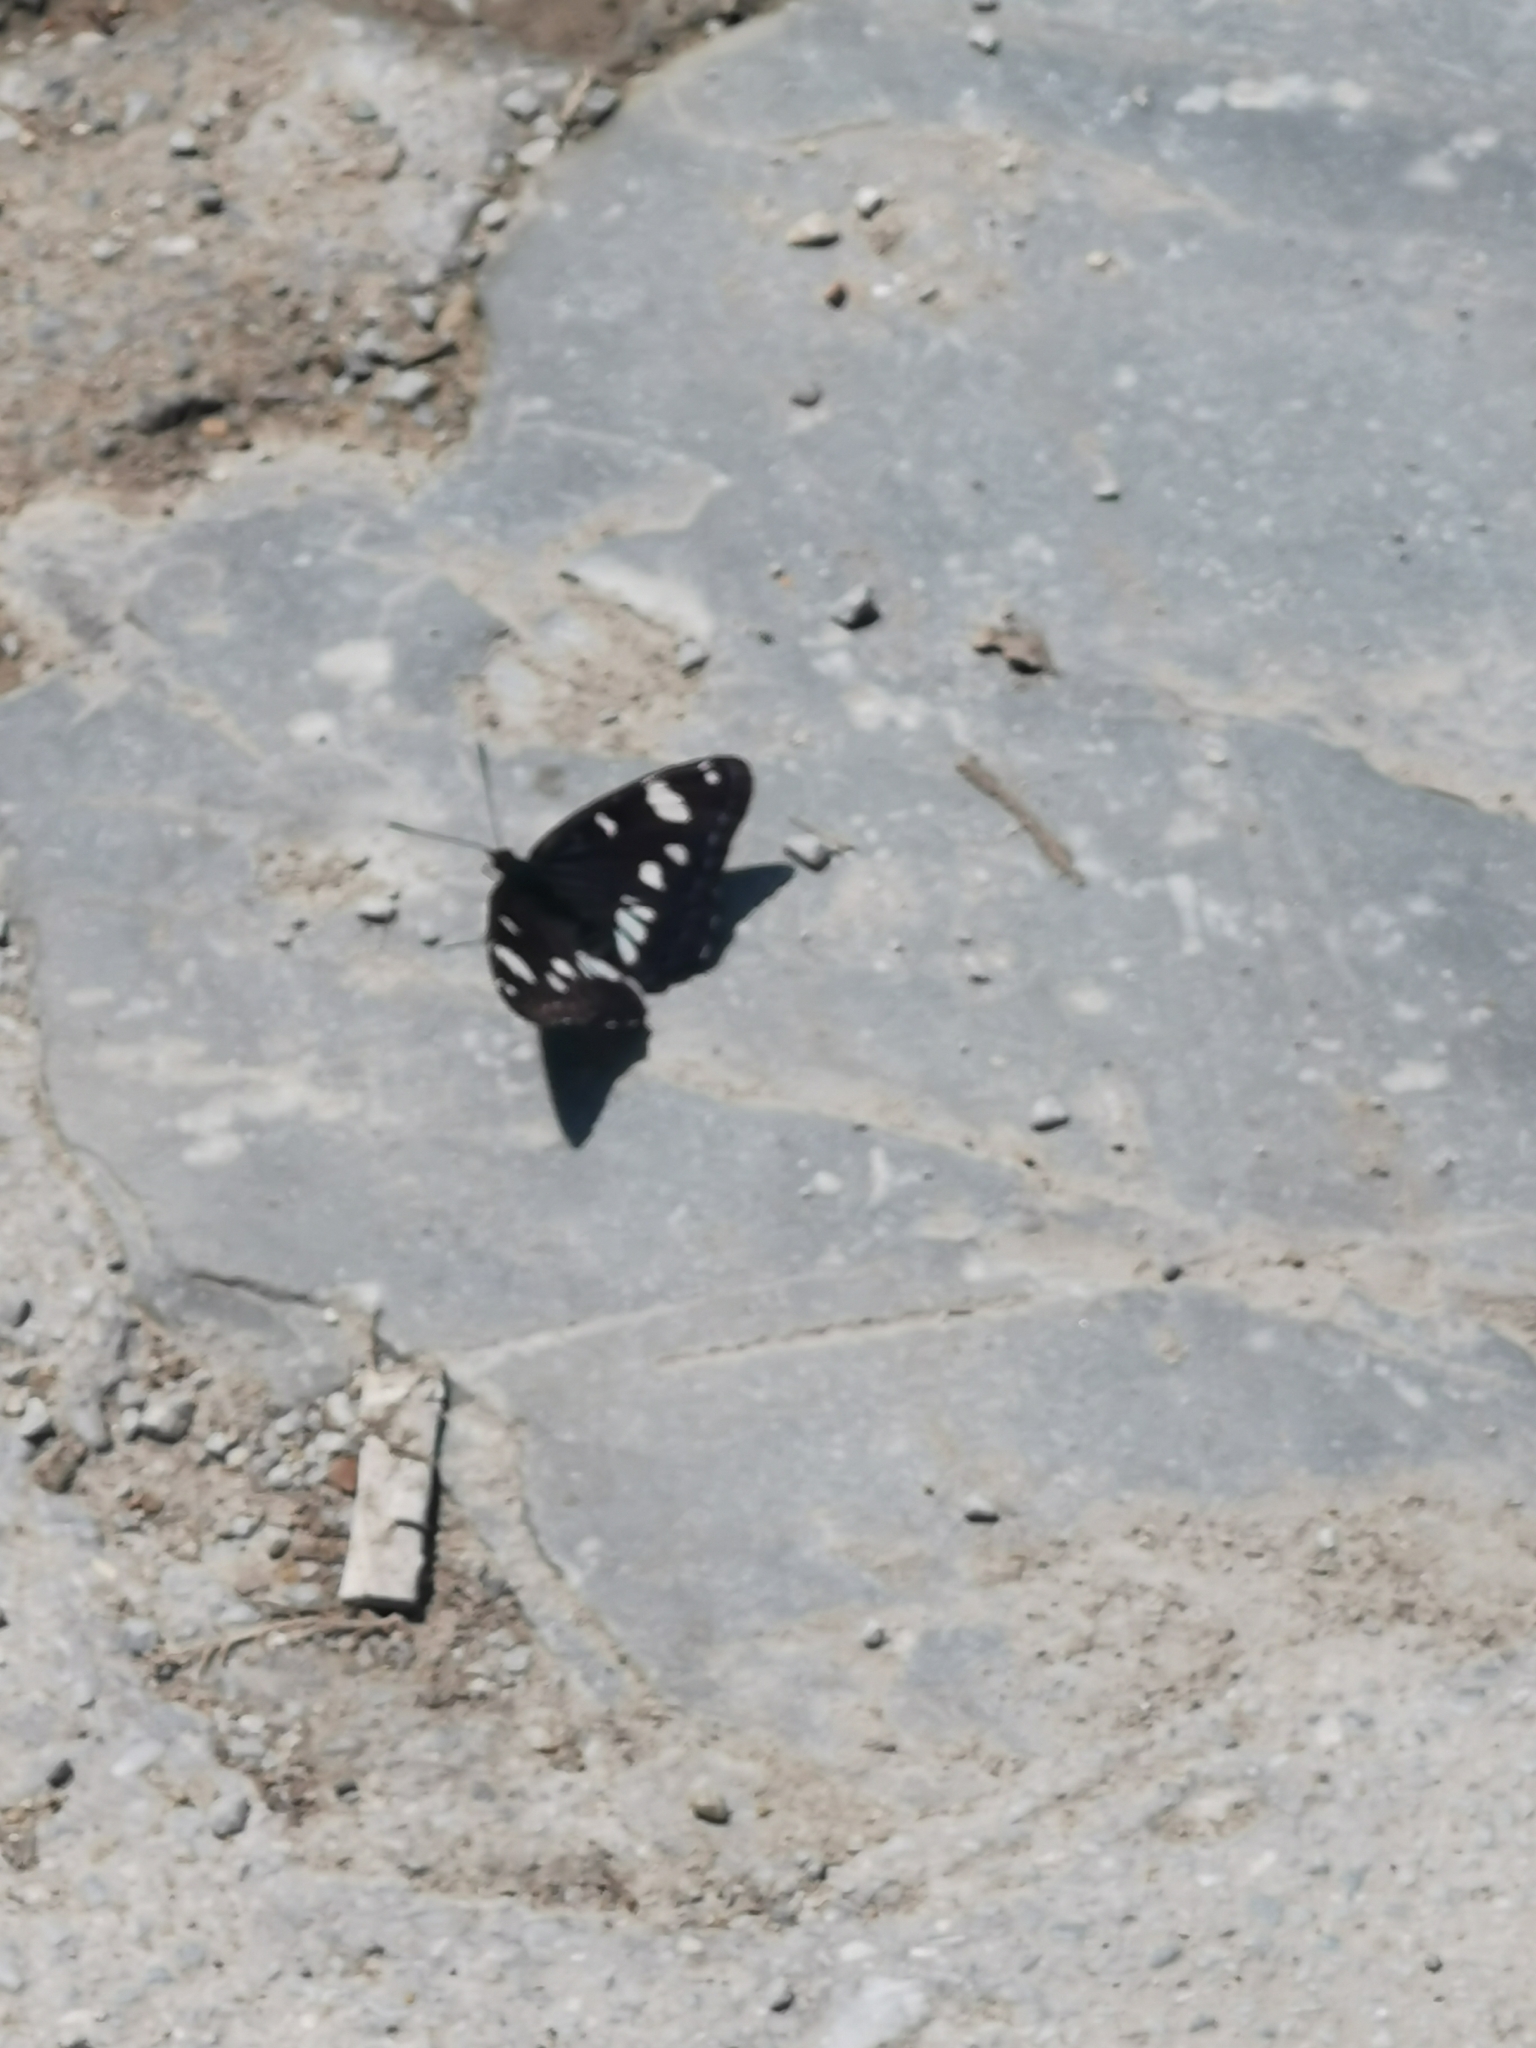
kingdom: Animalia
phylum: Arthropoda
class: Insecta
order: Lepidoptera
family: Nymphalidae
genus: Limenitis
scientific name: Limenitis reducta
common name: Southern white admiral
